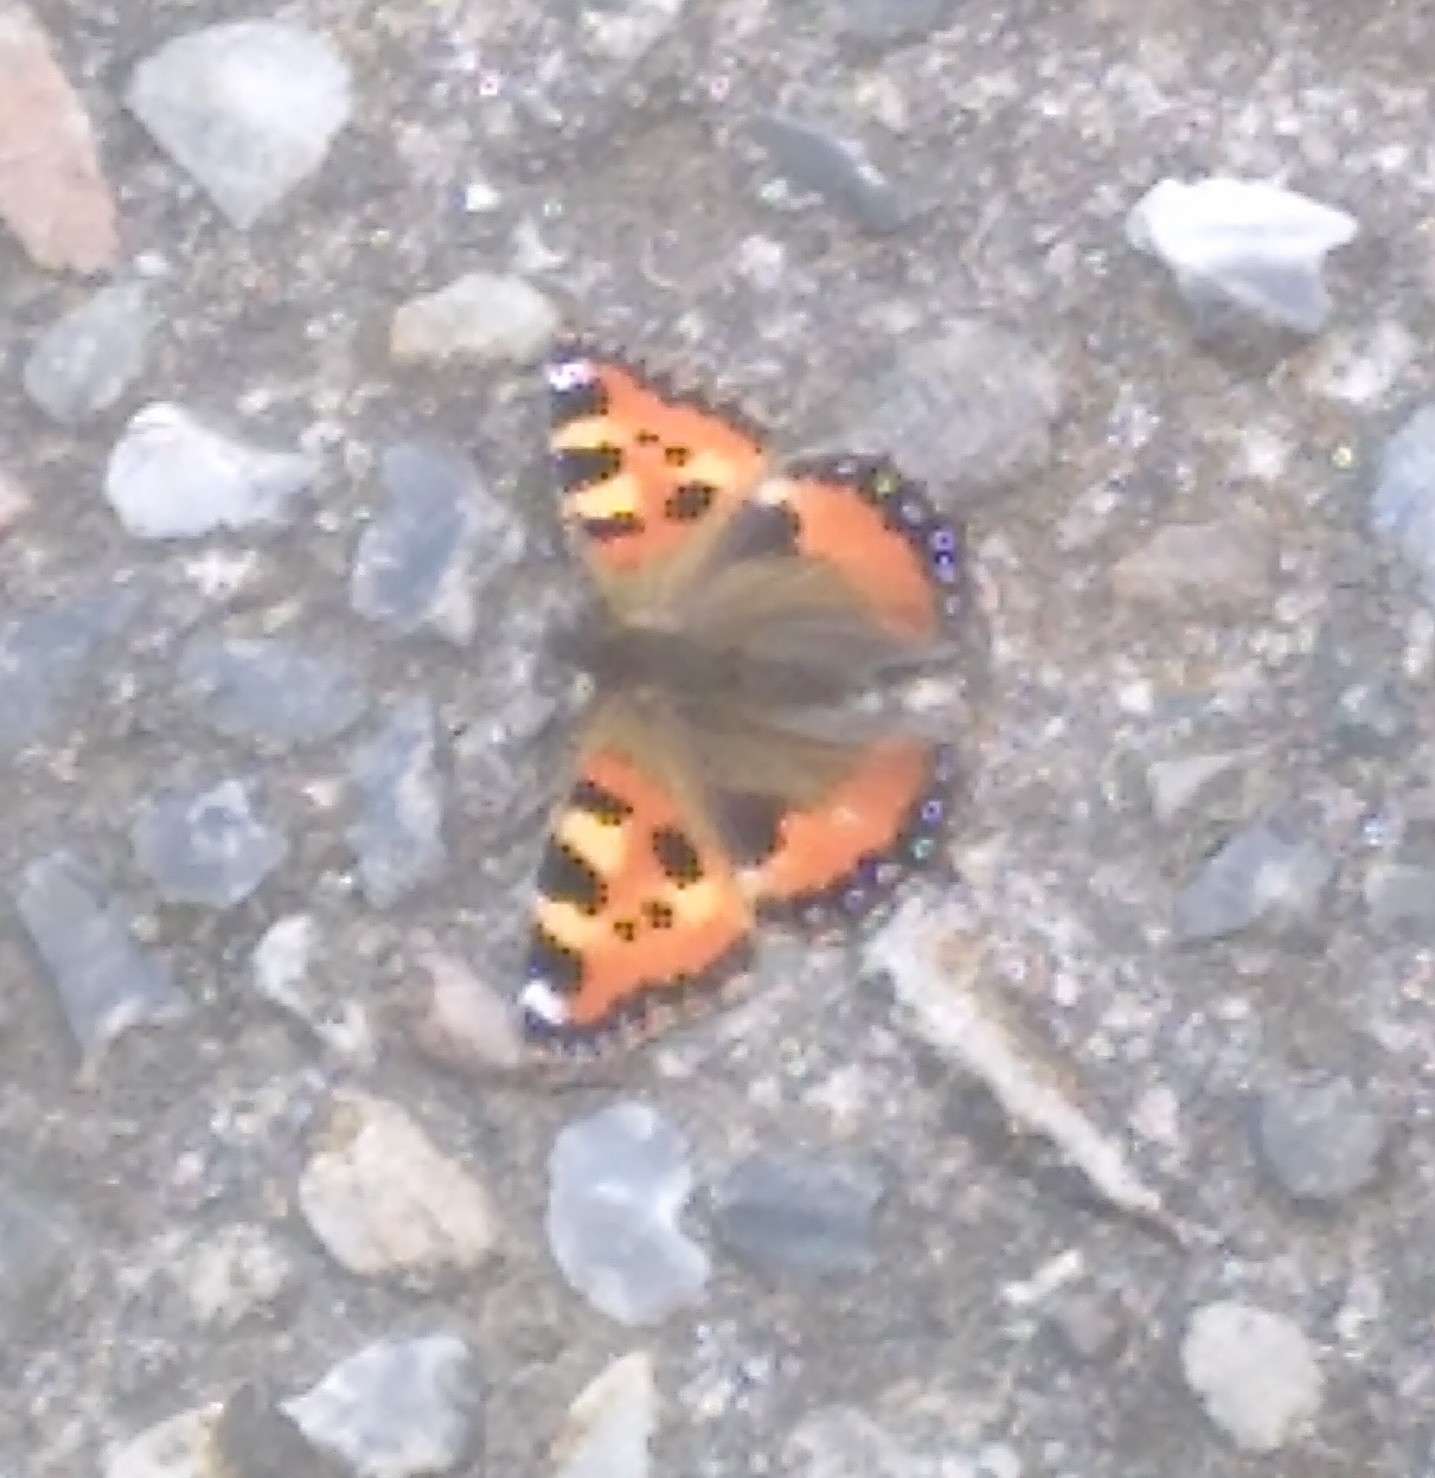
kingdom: Animalia
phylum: Arthropoda
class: Insecta
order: Lepidoptera
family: Nymphalidae
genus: Aglais
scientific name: Aglais urticae
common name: Small tortoiseshell
